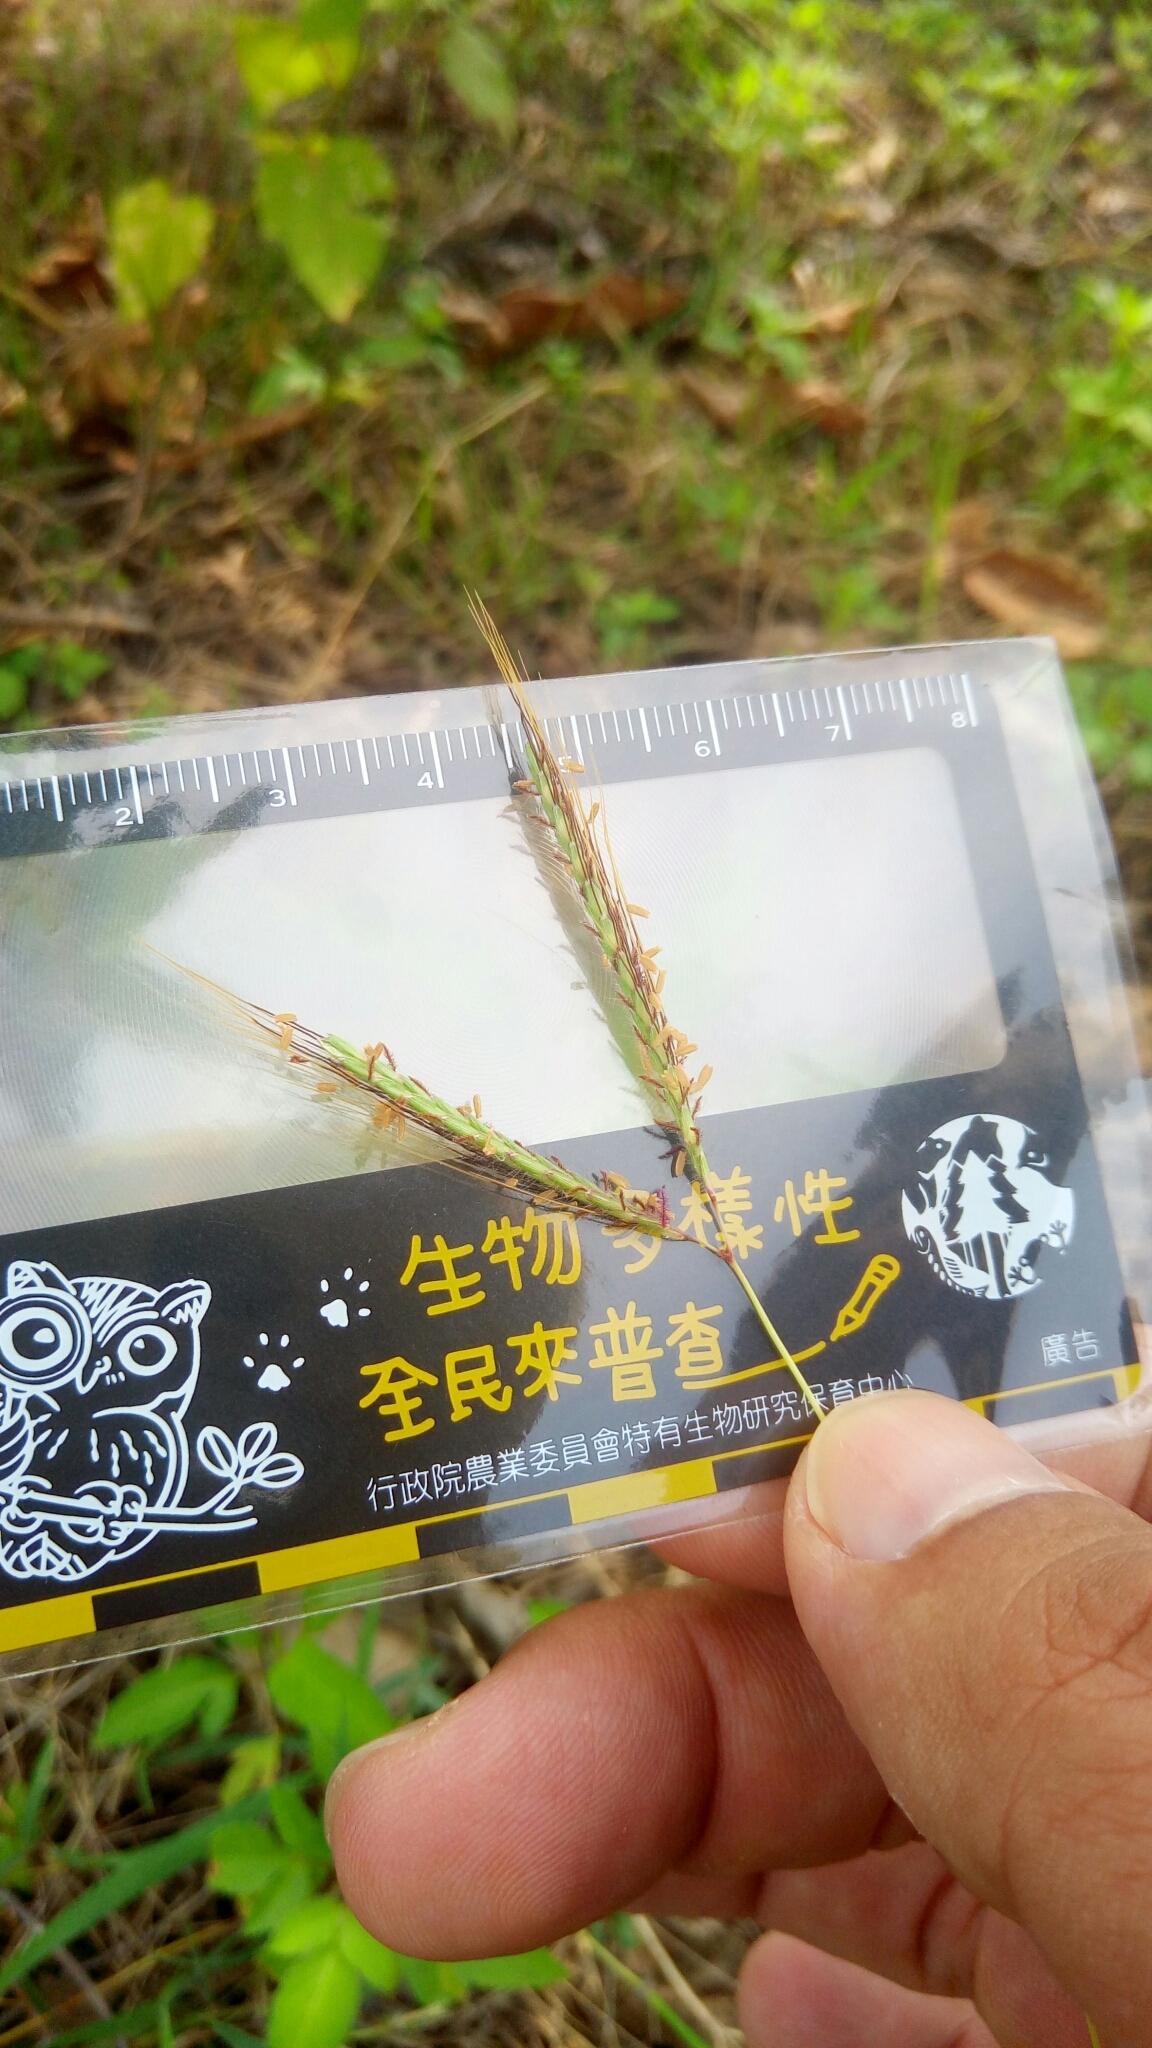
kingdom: Plantae
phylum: Tracheophyta
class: Liliopsida
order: Poales
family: Poaceae
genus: Dichanthium
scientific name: Dichanthium annulatum
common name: Kleberg's bluestem
